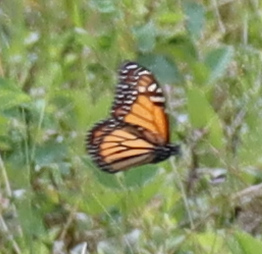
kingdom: Animalia
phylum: Arthropoda
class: Insecta
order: Lepidoptera
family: Nymphalidae
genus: Danaus
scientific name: Danaus plexippus
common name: Monarch
